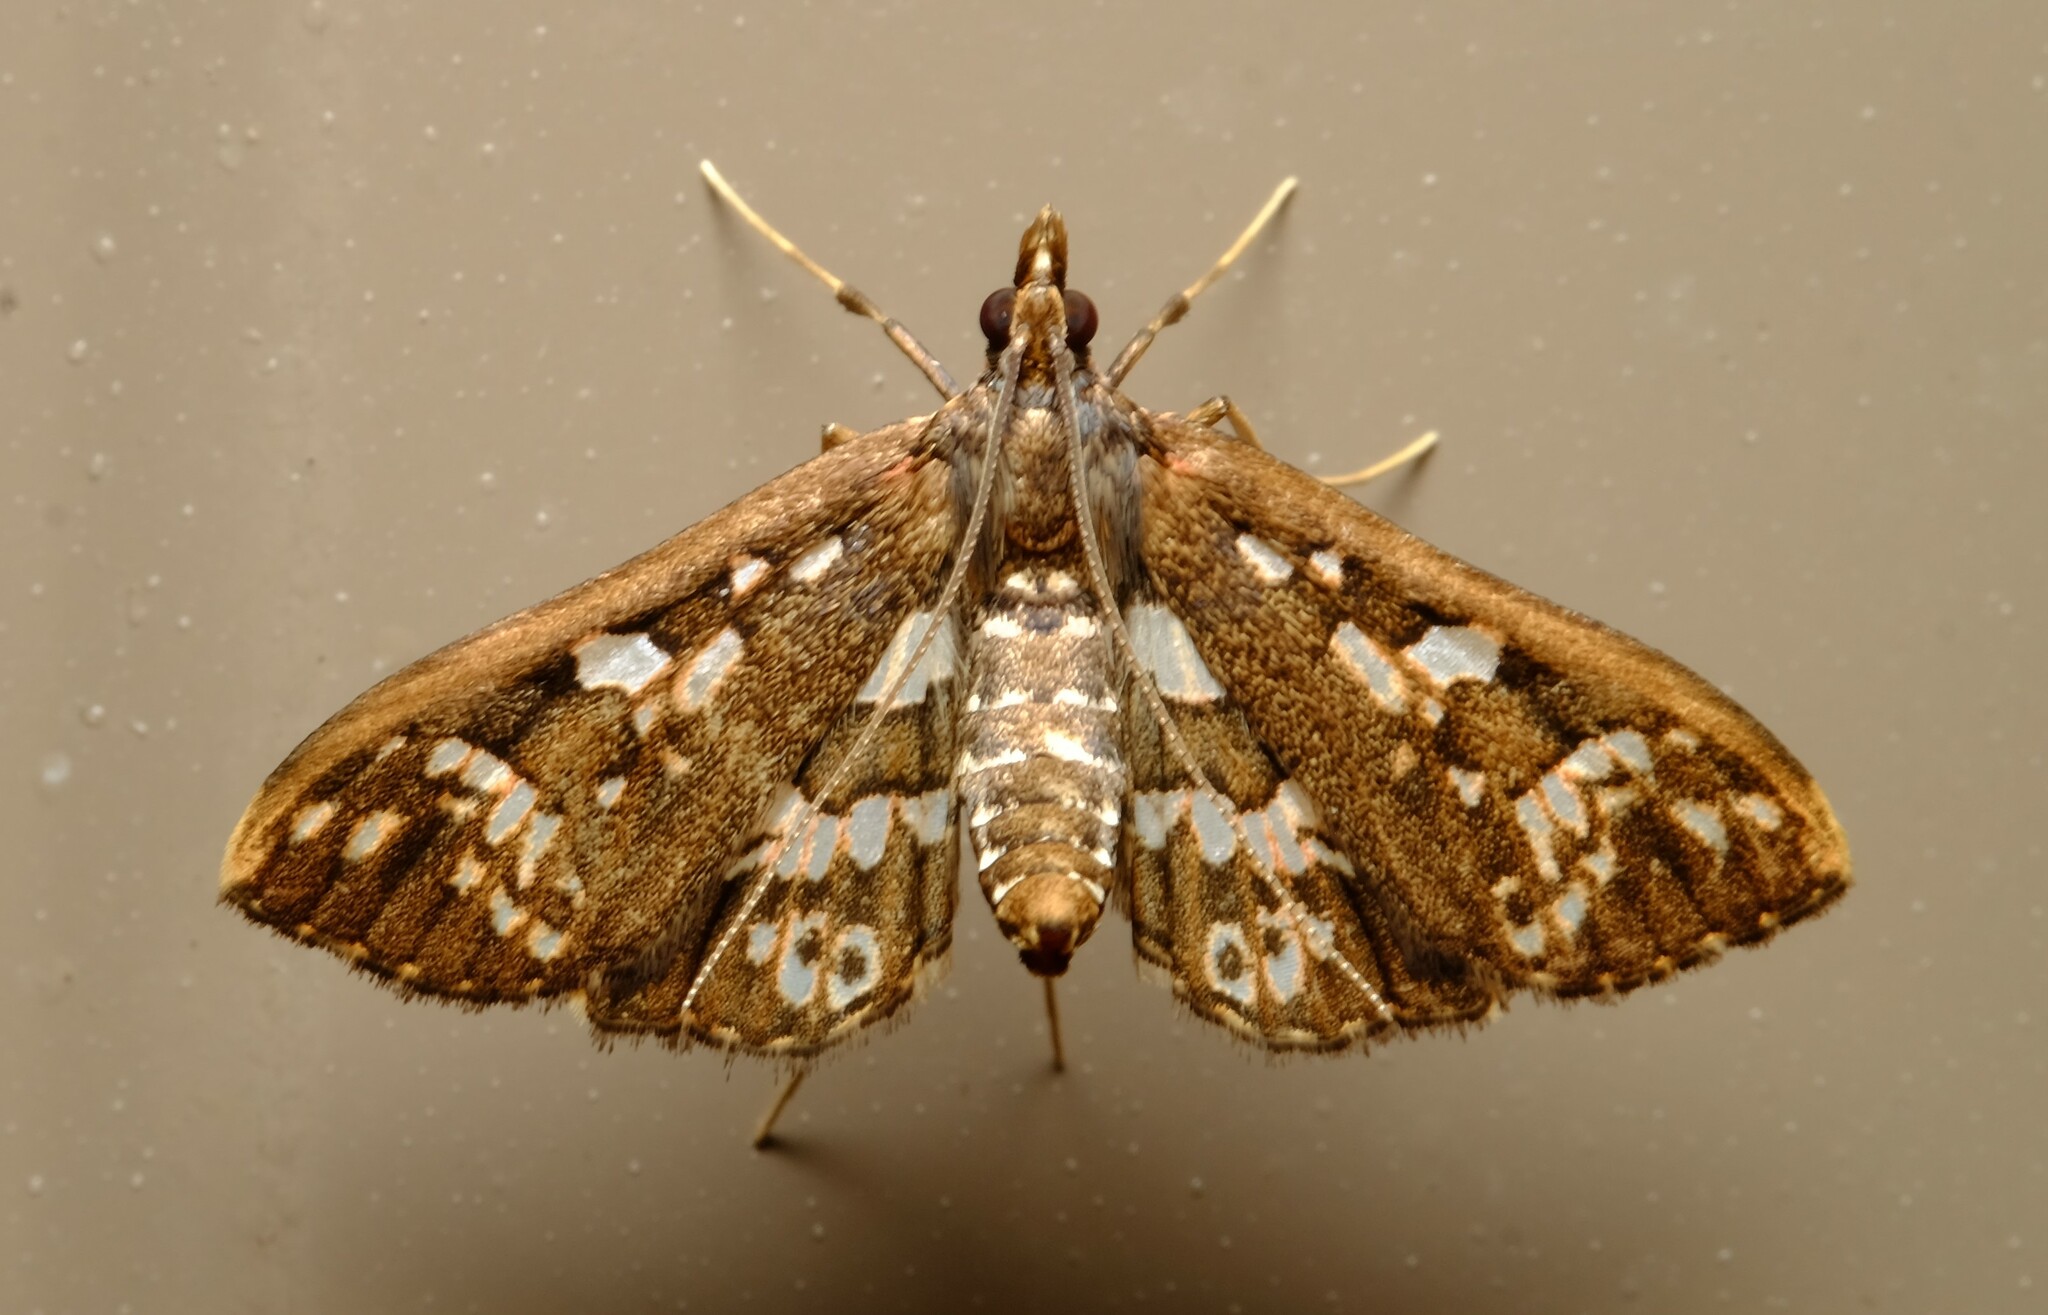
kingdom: Animalia
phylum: Arthropoda
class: Insecta
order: Lepidoptera
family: Crambidae
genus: Ischnurges
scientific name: Ischnurges illustralis
